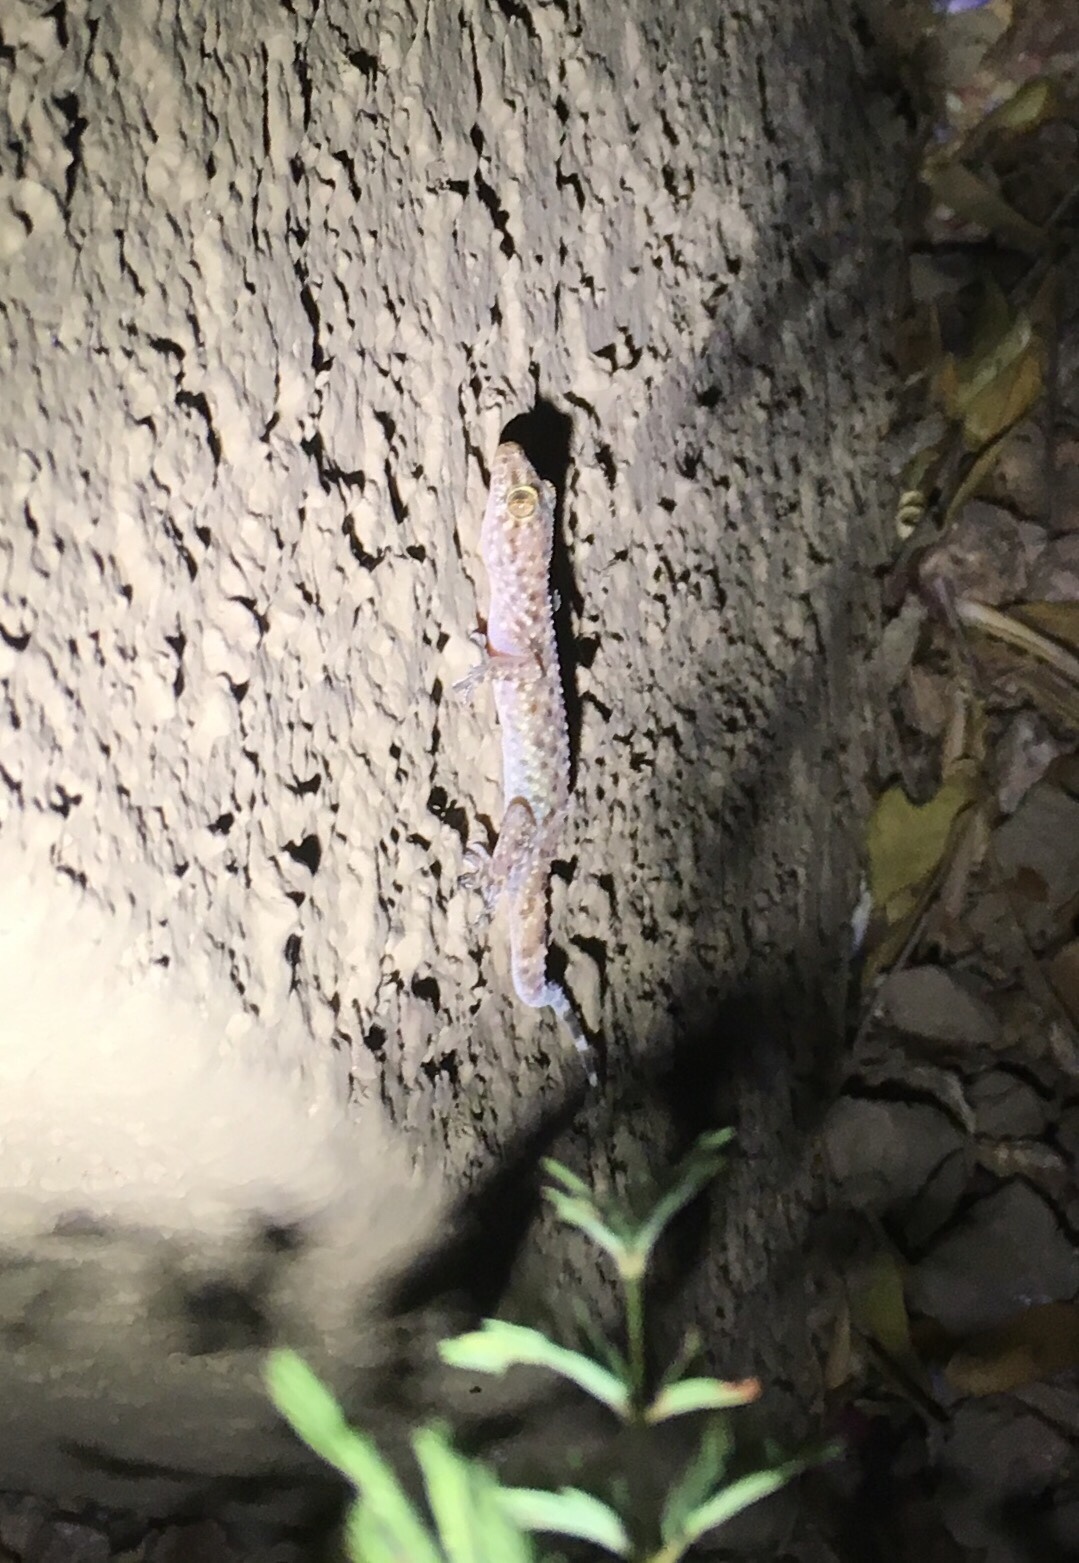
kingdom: Animalia
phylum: Chordata
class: Squamata
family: Gekkonidae
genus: Hemidactylus
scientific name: Hemidactylus turcicus
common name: Turkish gecko
